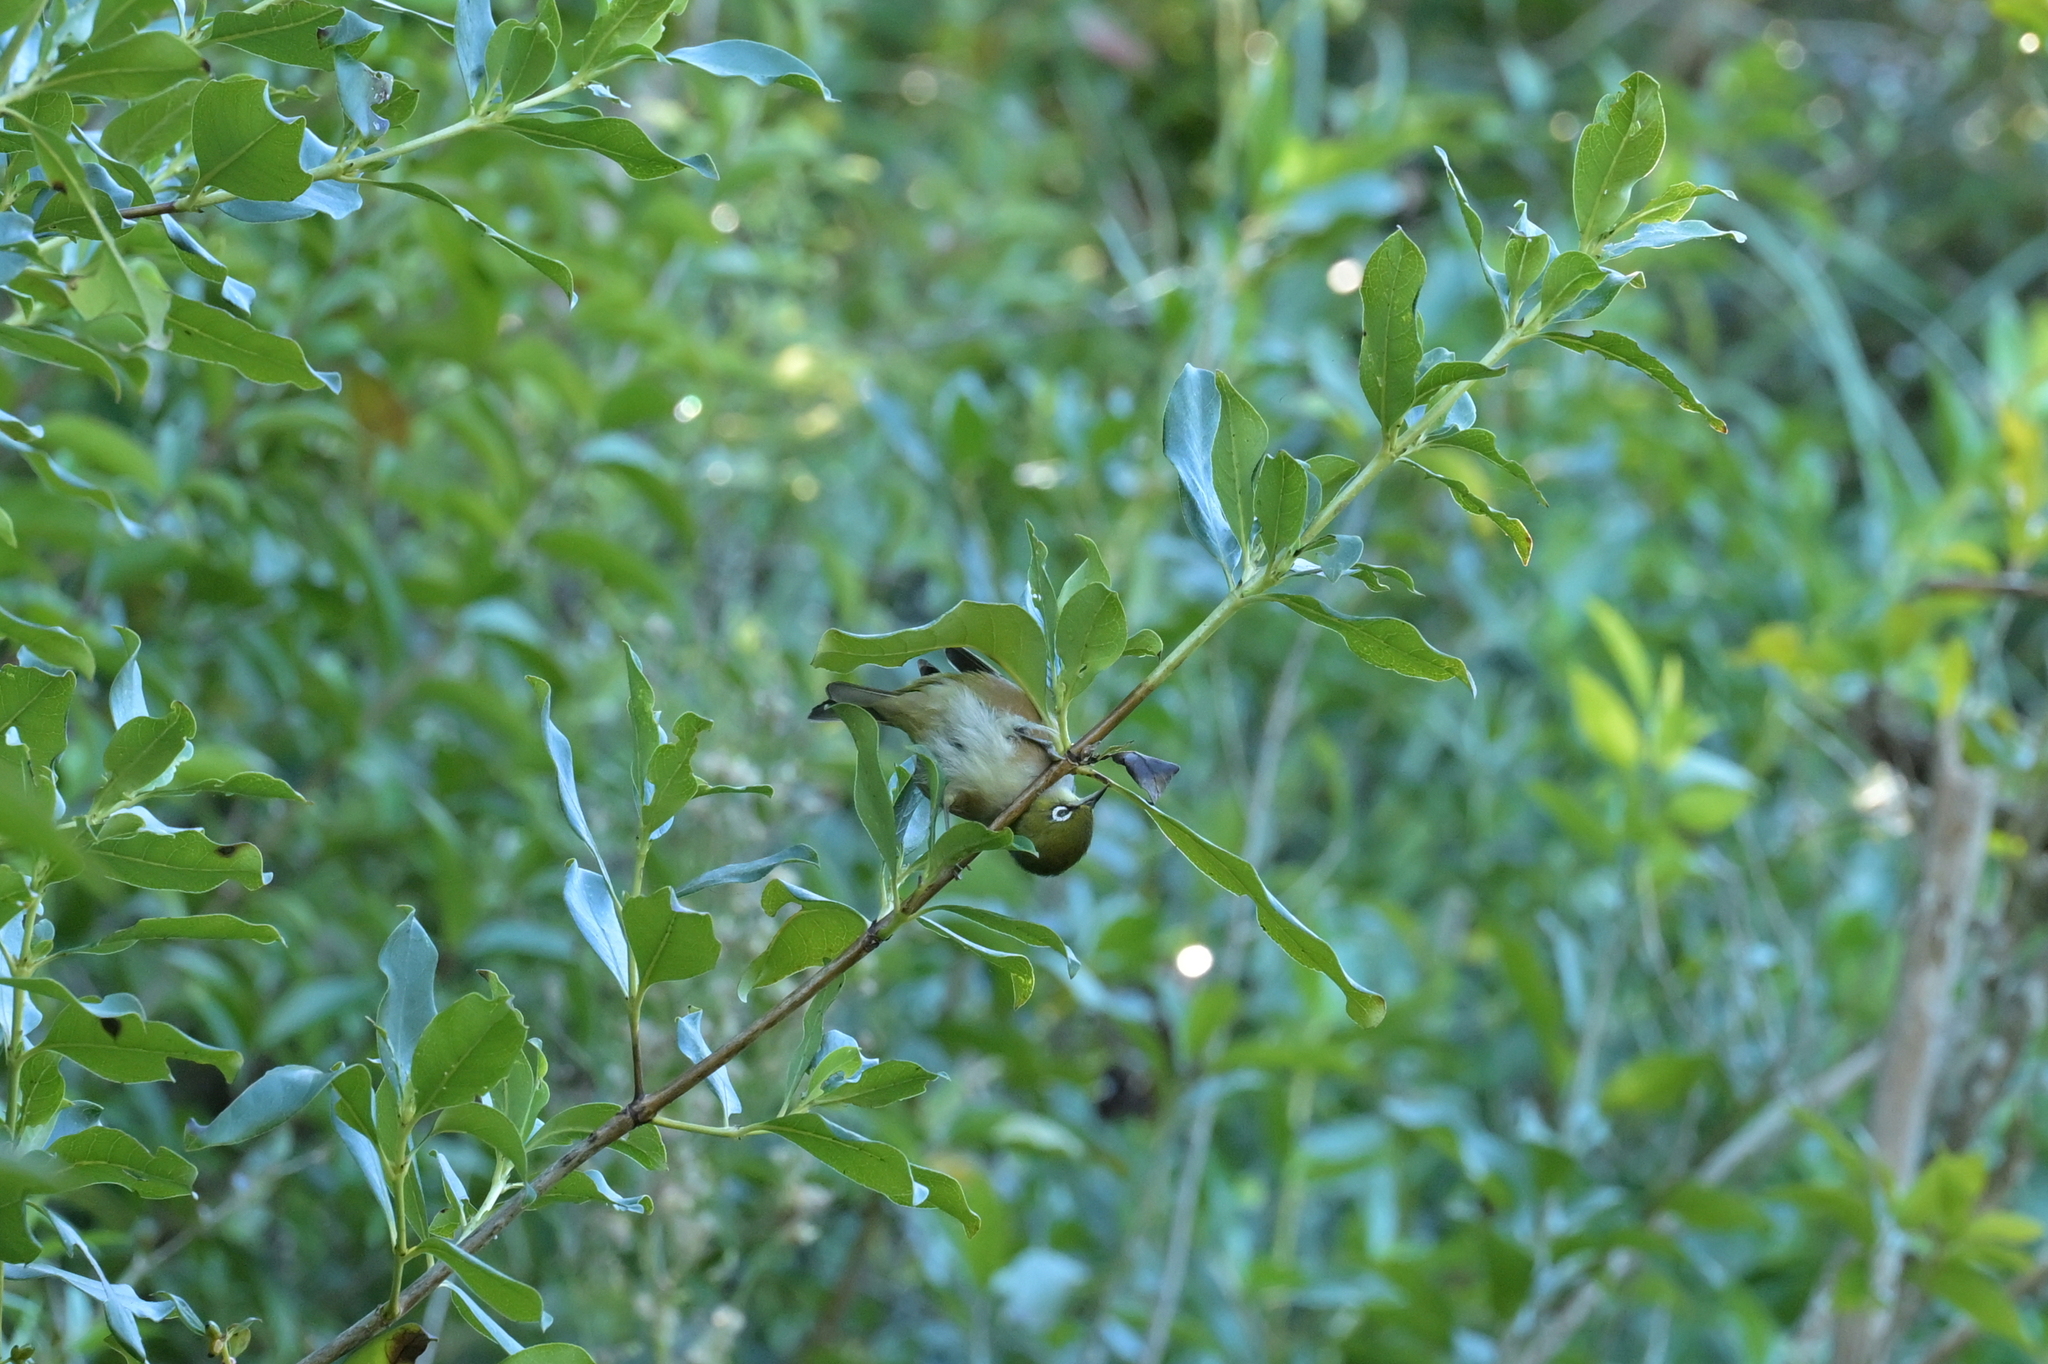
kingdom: Animalia
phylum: Chordata
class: Aves
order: Passeriformes
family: Zosteropidae
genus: Zosterops
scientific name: Zosterops lateralis
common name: Silvereye
